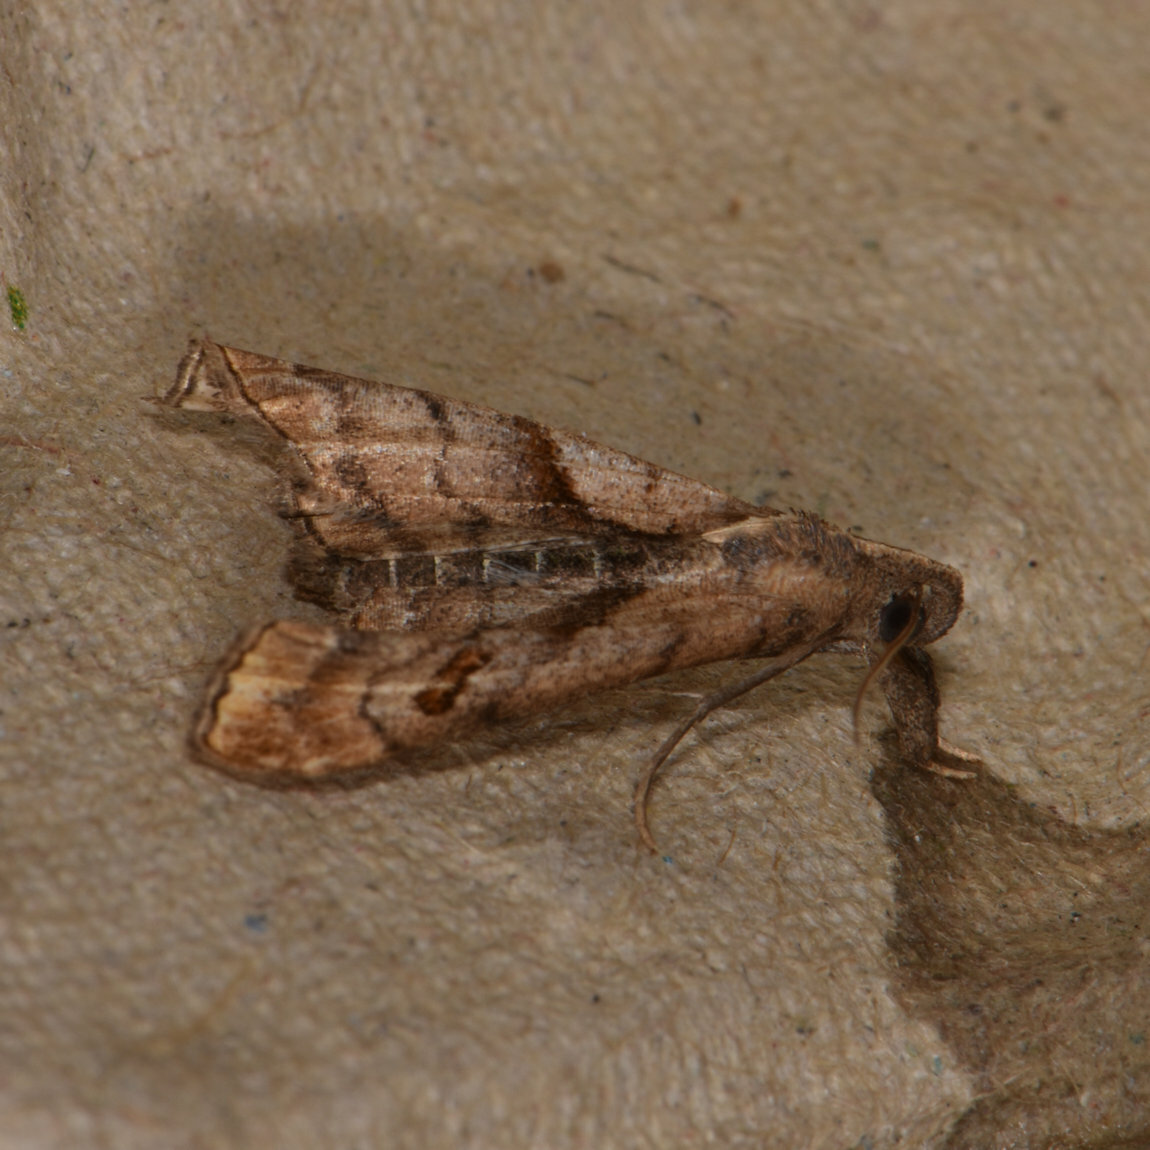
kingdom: Animalia
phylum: Arthropoda
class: Insecta
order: Lepidoptera
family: Erebidae
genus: Palthis
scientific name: Palthis angulalis
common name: Dark-spotted palthis moth
